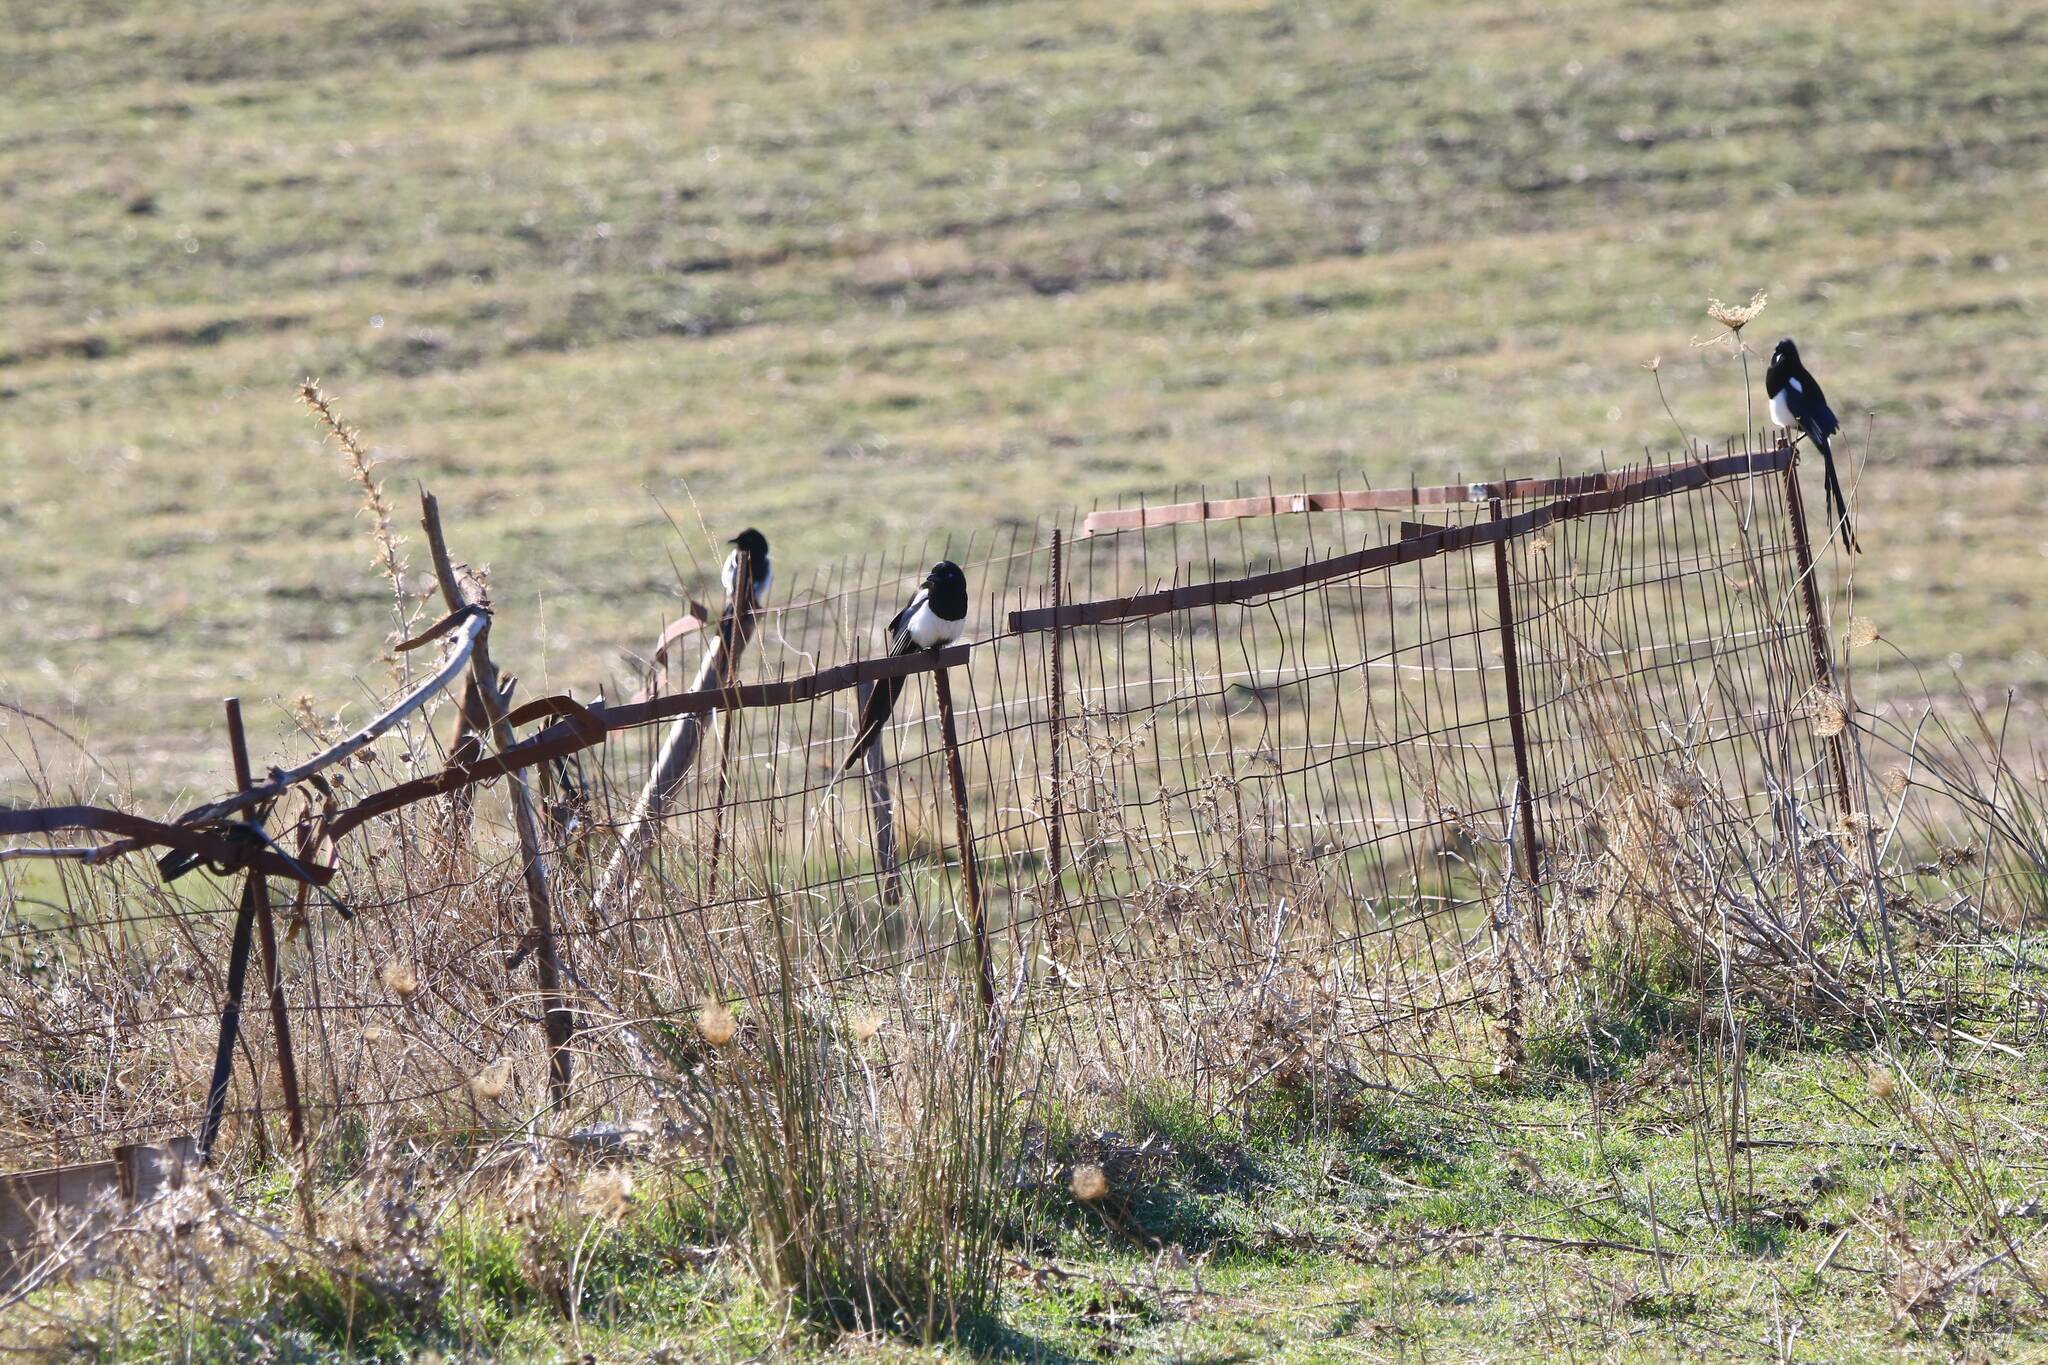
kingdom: Animalia
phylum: Chordata
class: Aves
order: Passeriformes
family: Corvidae
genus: Pica
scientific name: Pica mauritanica
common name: Maghreb magpie
